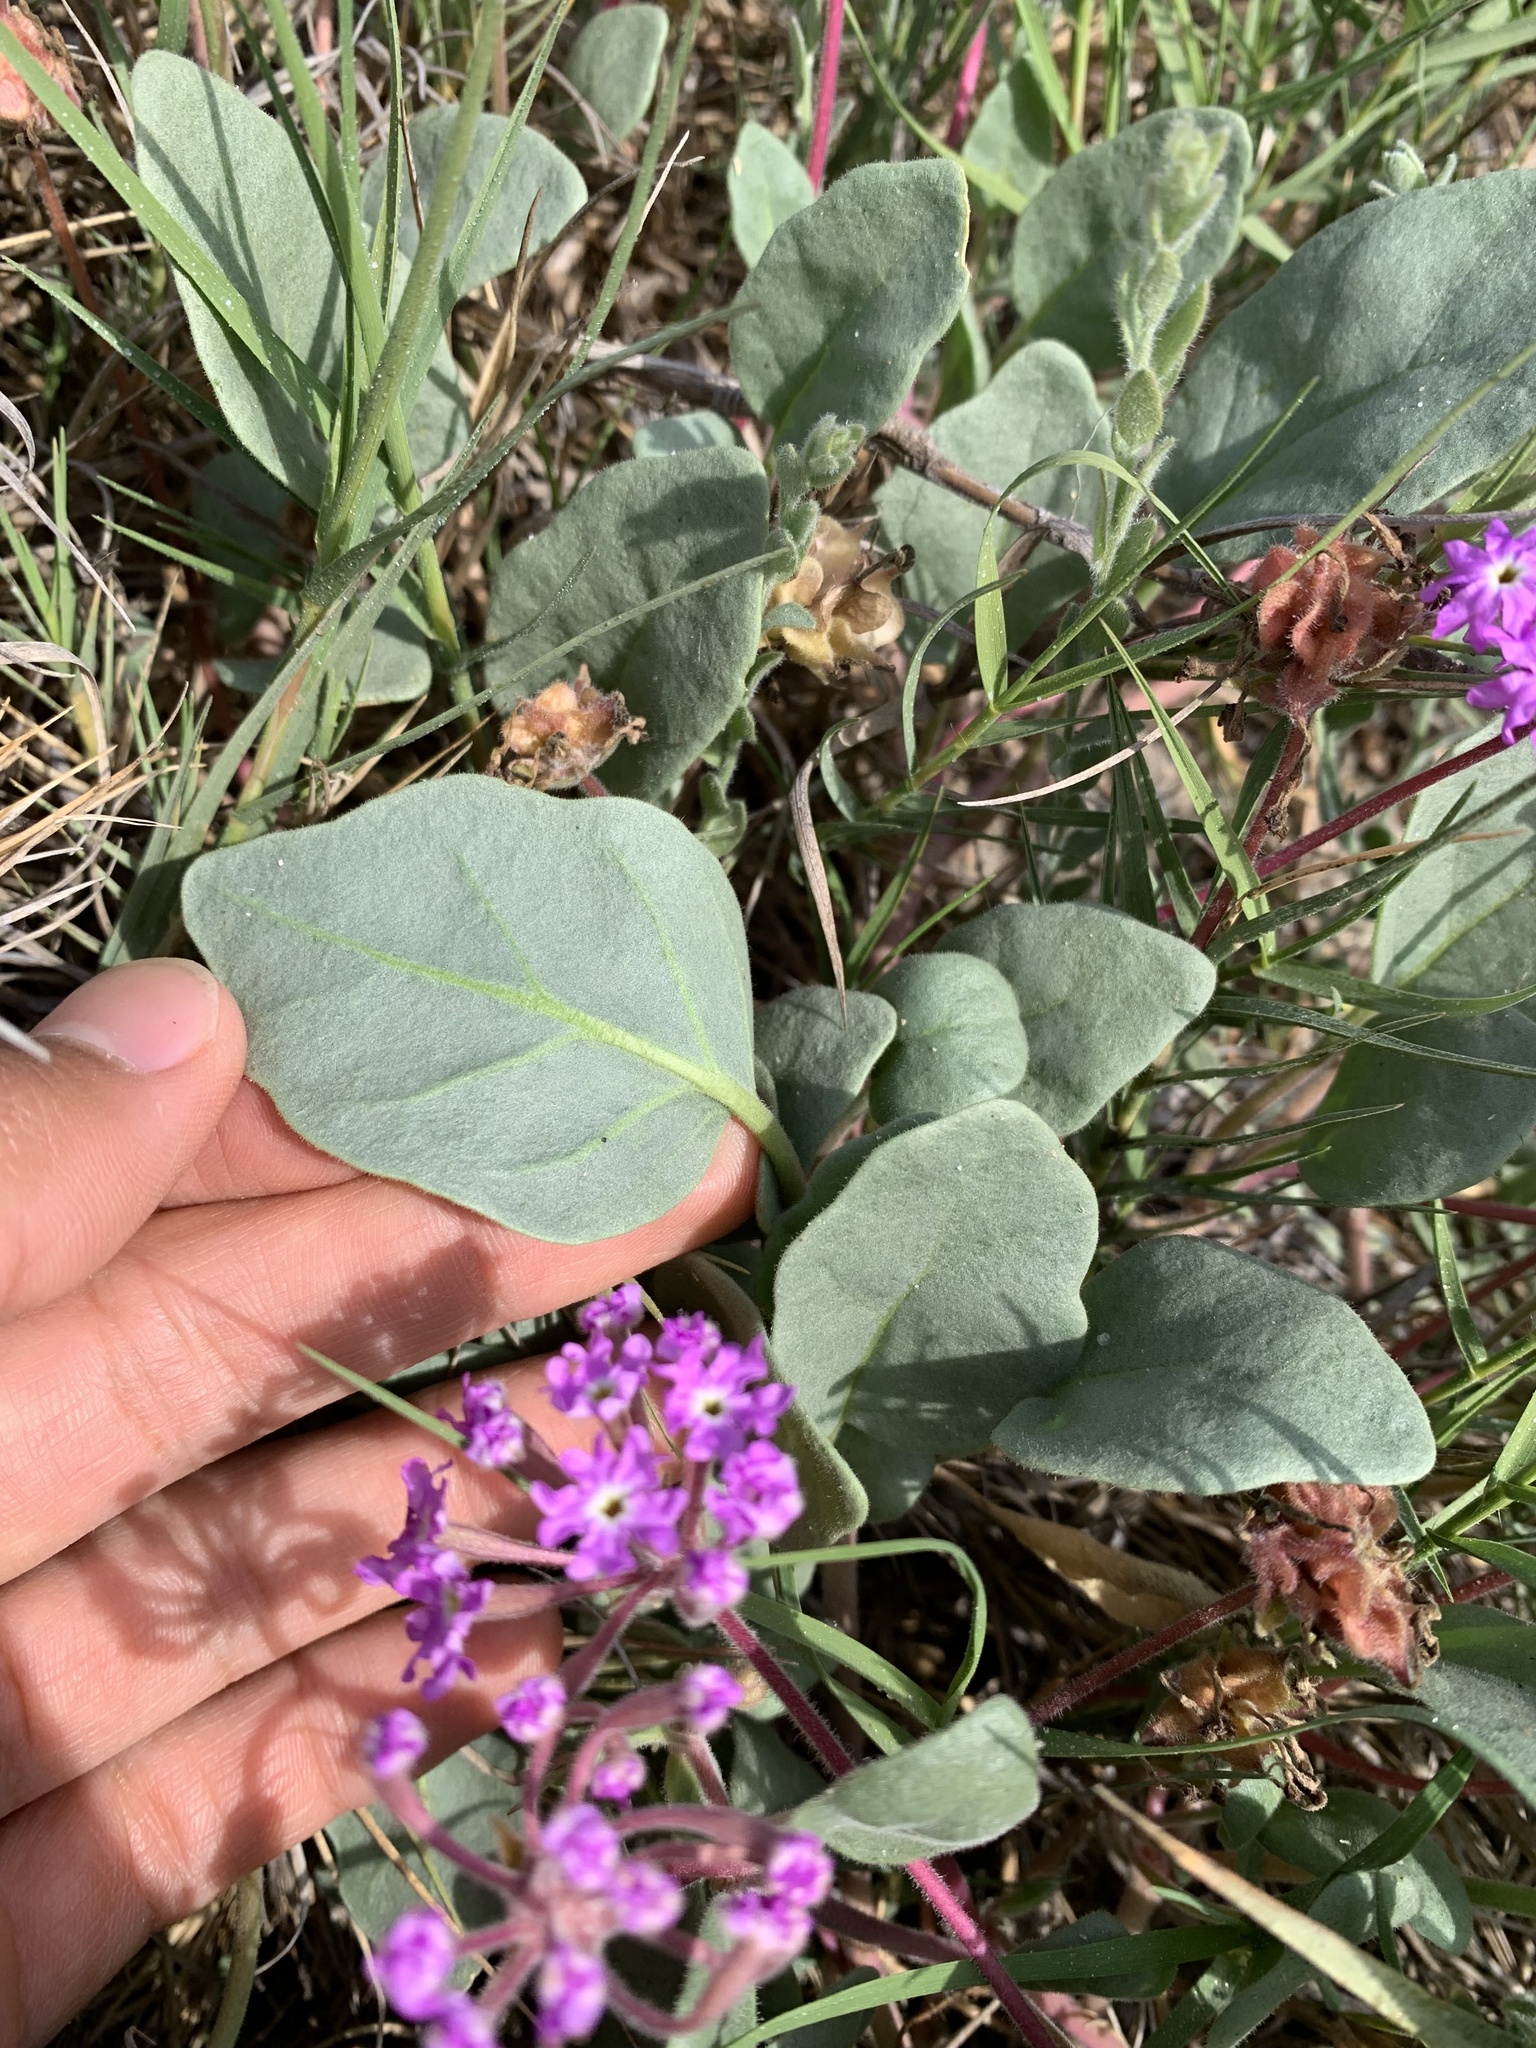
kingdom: Plantae
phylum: Tracheophyta
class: Magnoliopsida
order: Caryophyllales
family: Nyctaginaceae
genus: Abronia
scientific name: Abronia umbellata
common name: Sand-verbena
